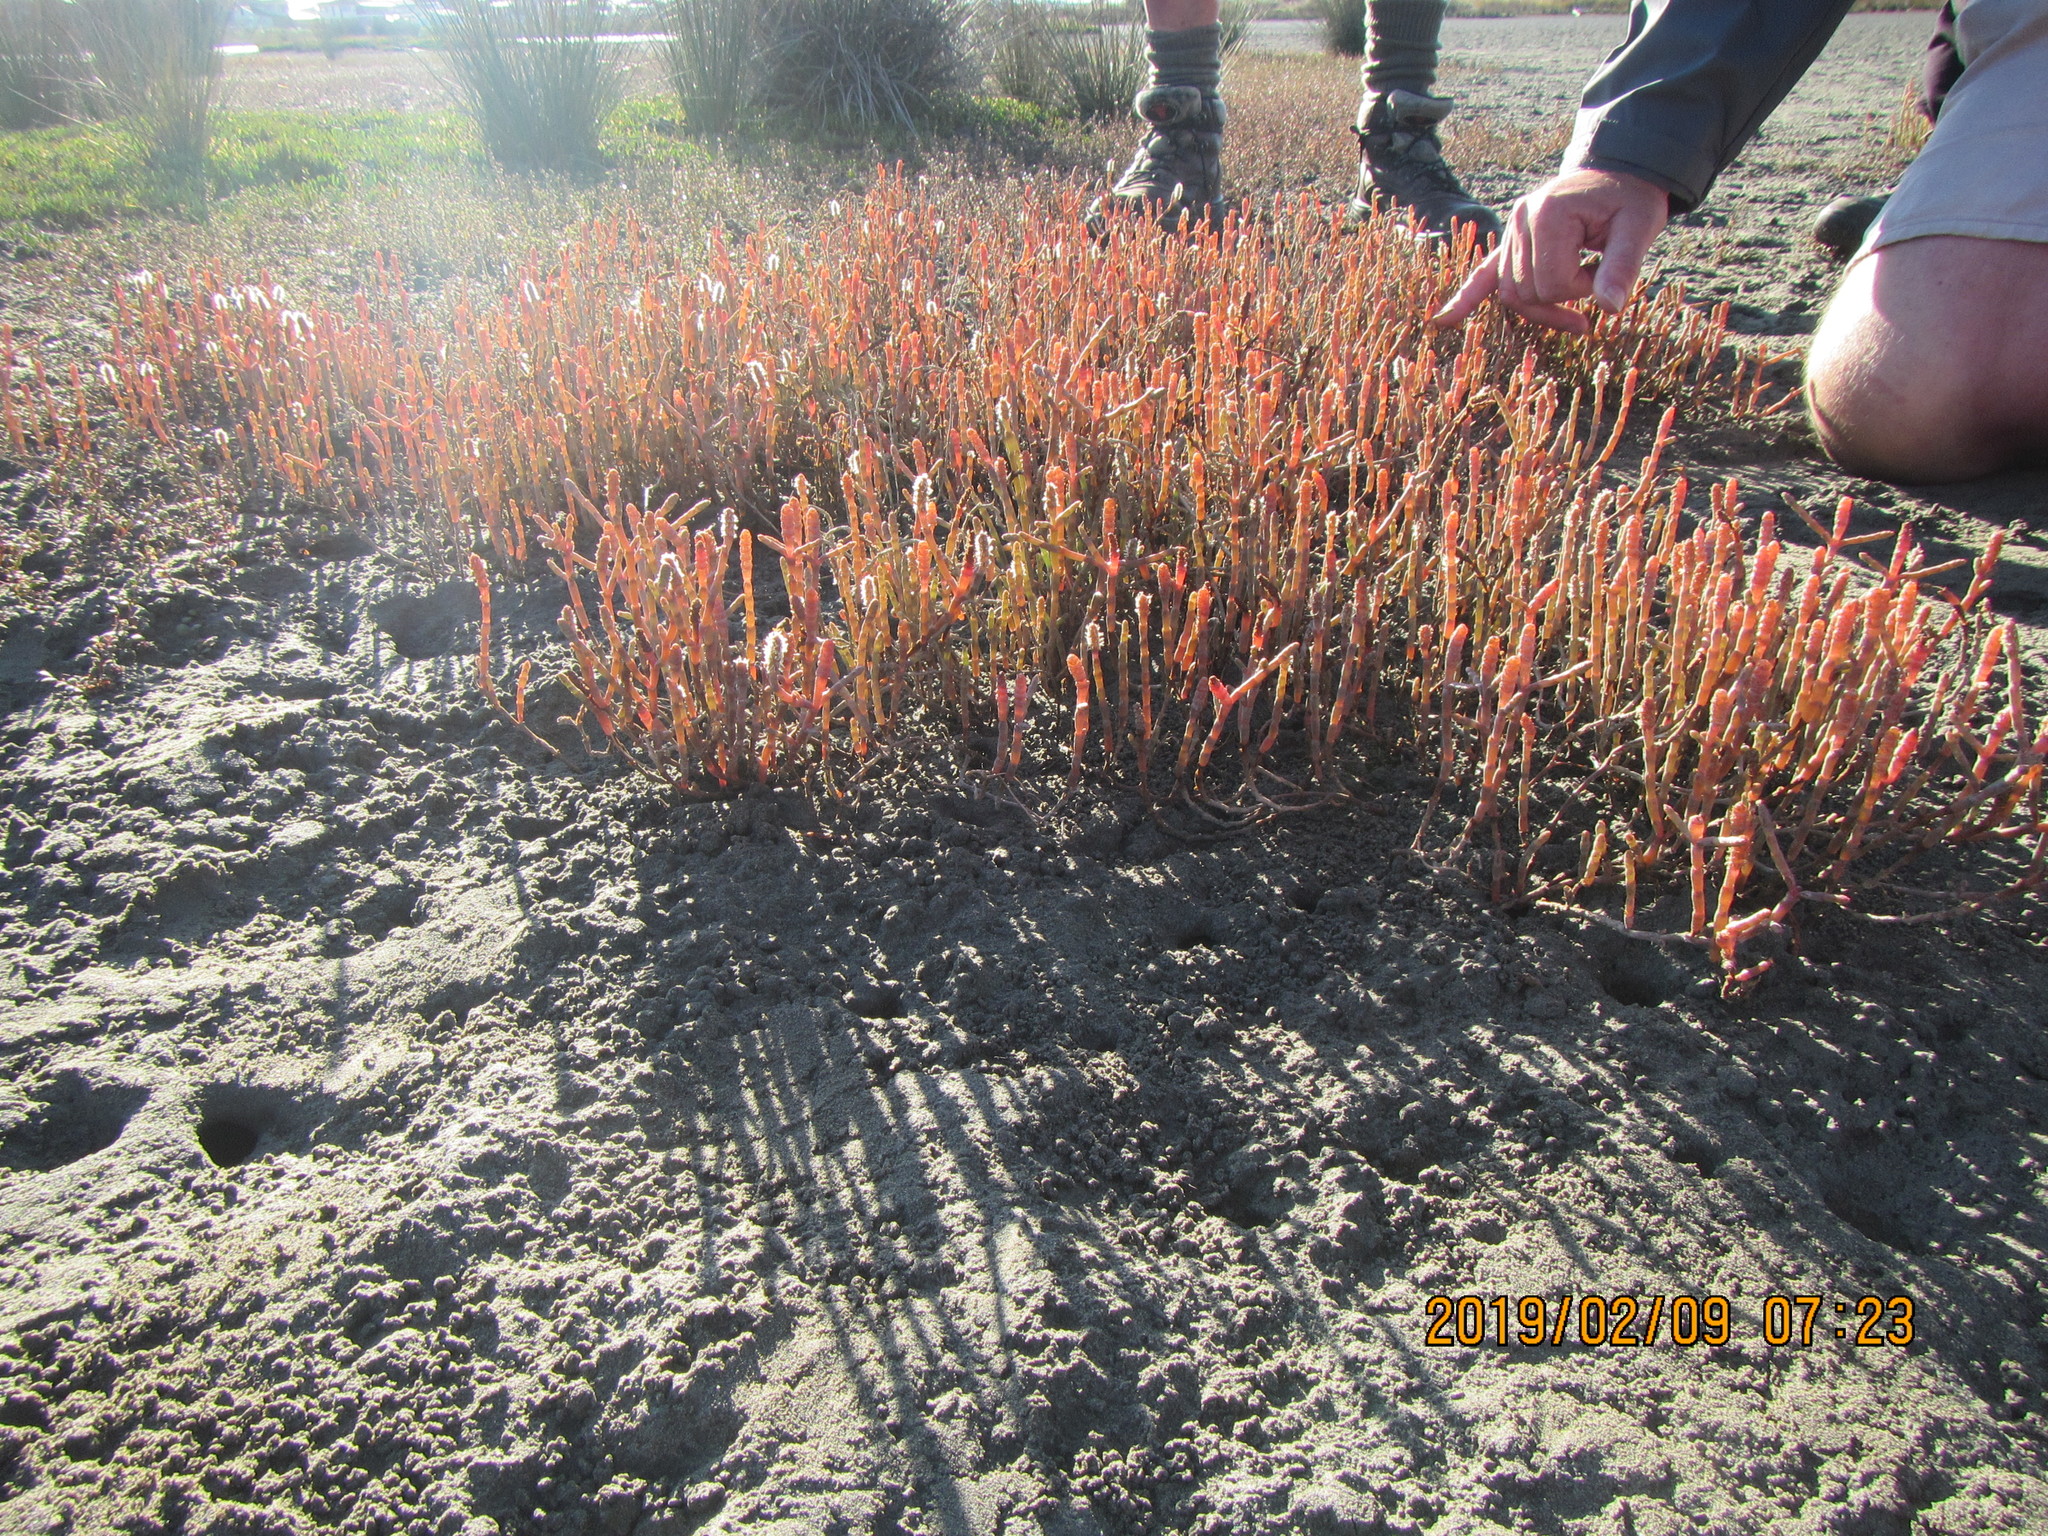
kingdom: Plantae
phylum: Tracheophyta
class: Magnoliopsida
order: Caryophyllales
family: Amaranthaceae
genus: Salicornia
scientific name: Salicornia quinqueflora
